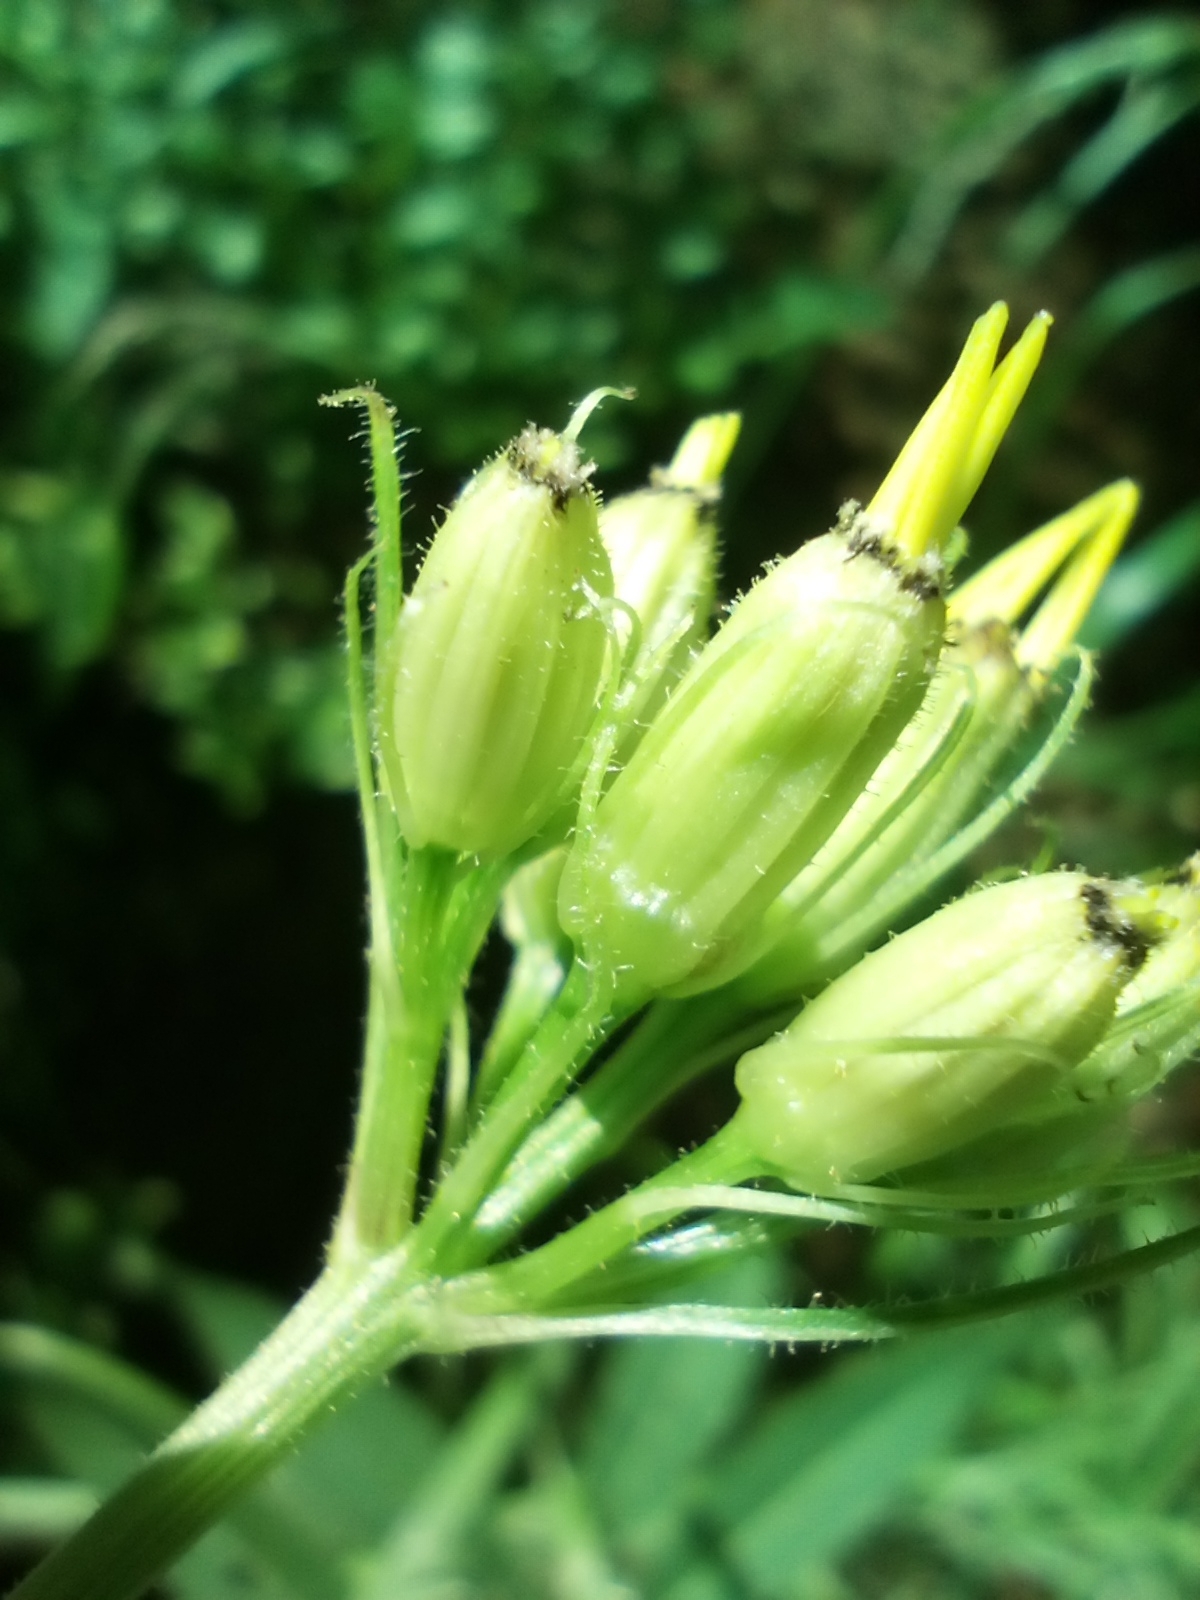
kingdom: Plantae
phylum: Tracheophyta
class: Magnoliopsida
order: Asterales
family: Asteraceae
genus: Senecio
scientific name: Senecio hercynicus
